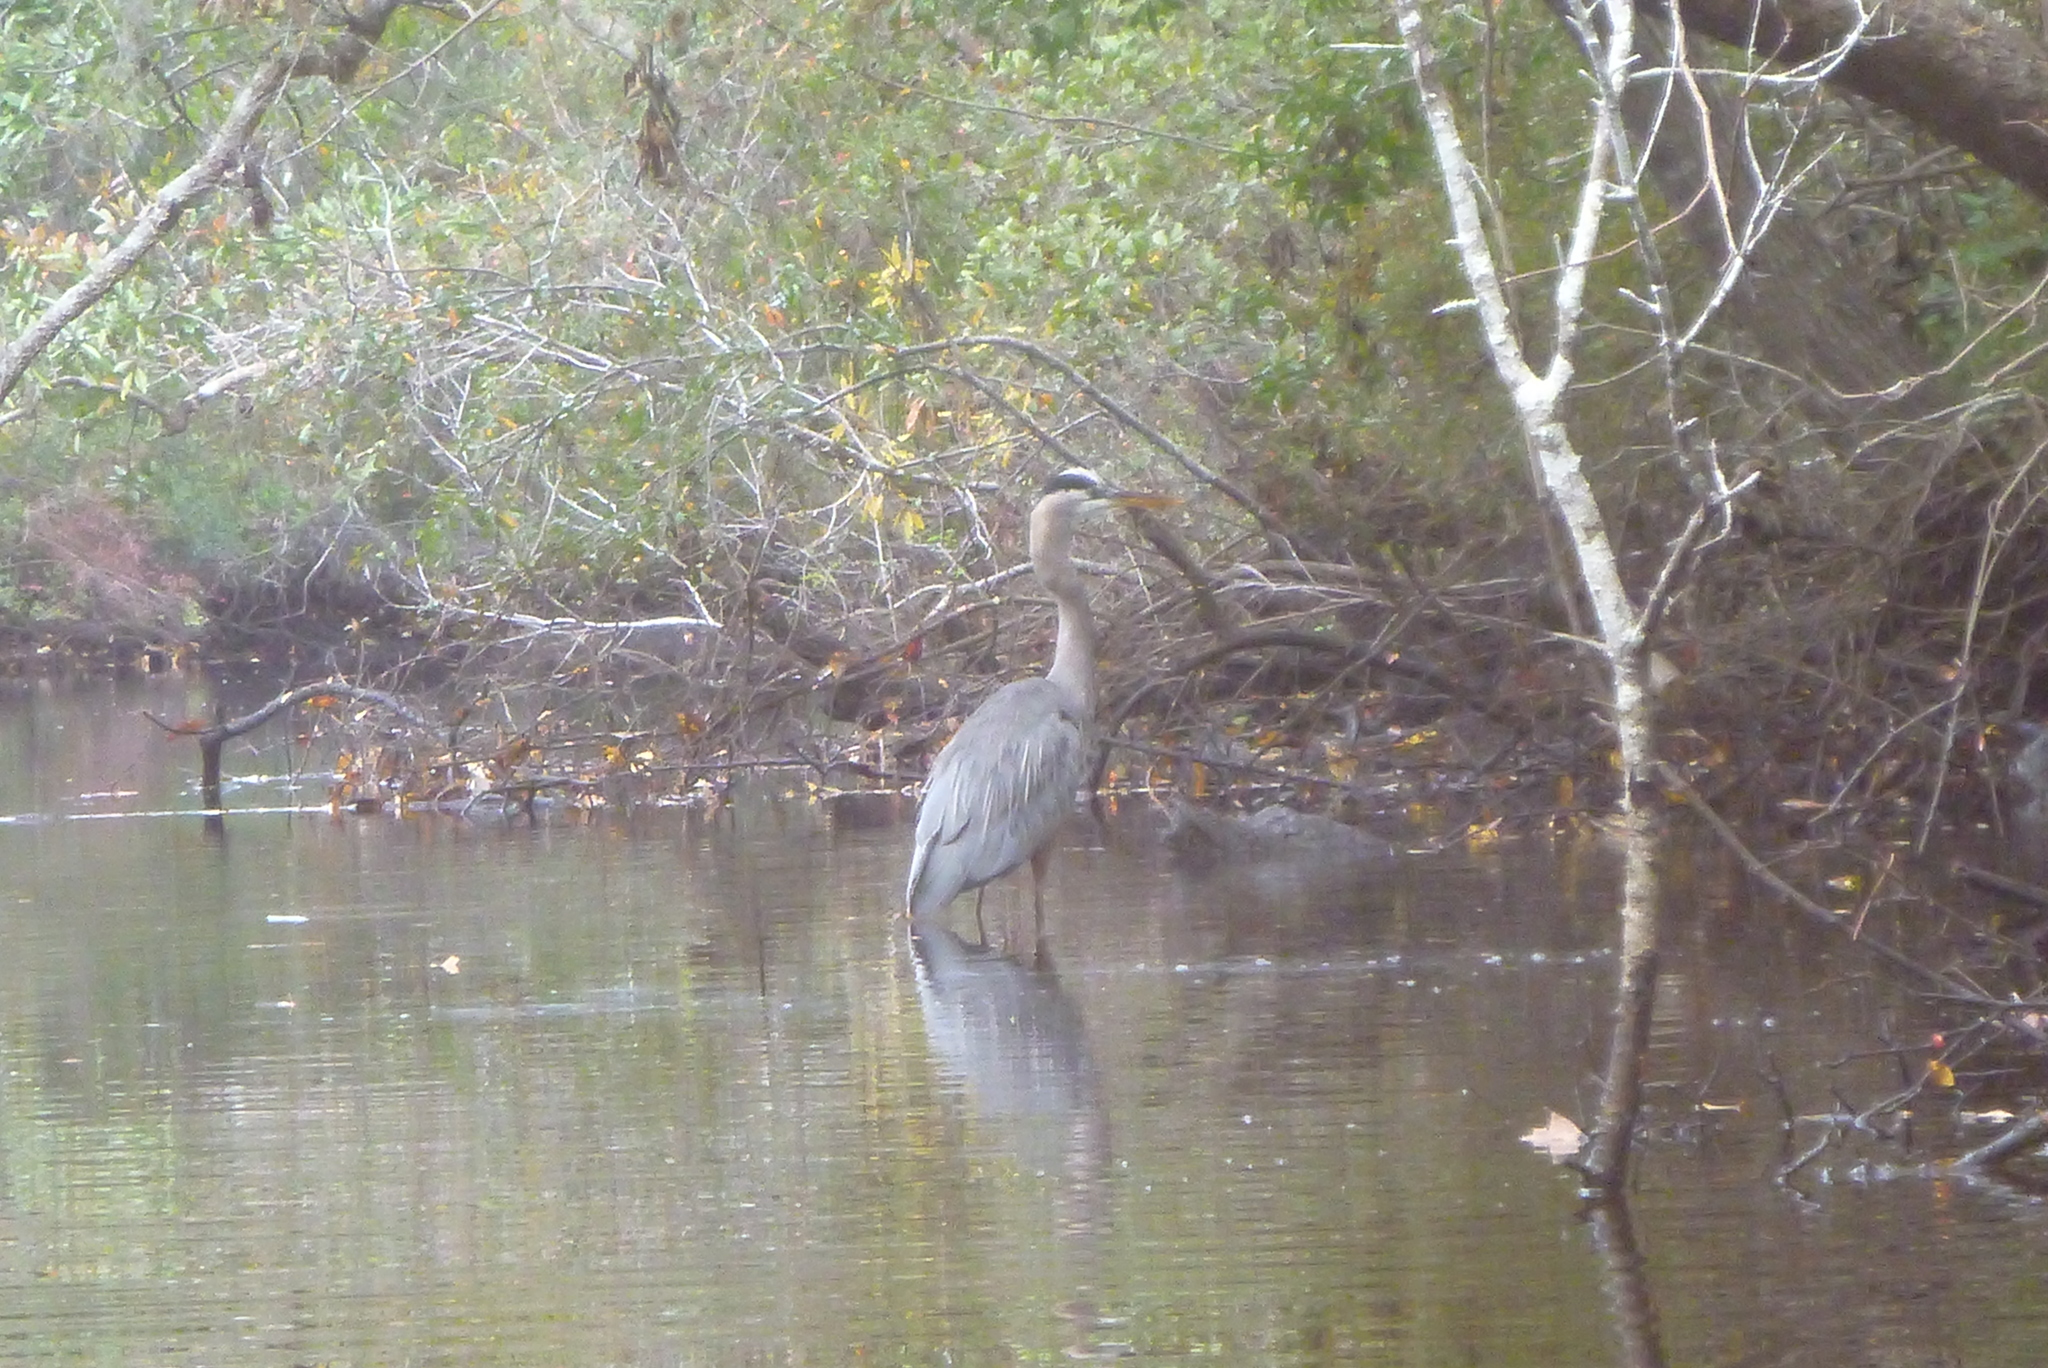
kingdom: Animalia
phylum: Chordata
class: Aves
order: Pelecaniformes
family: Ardeidae
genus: Ardea
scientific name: Ardea herodias
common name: Great blue heron
